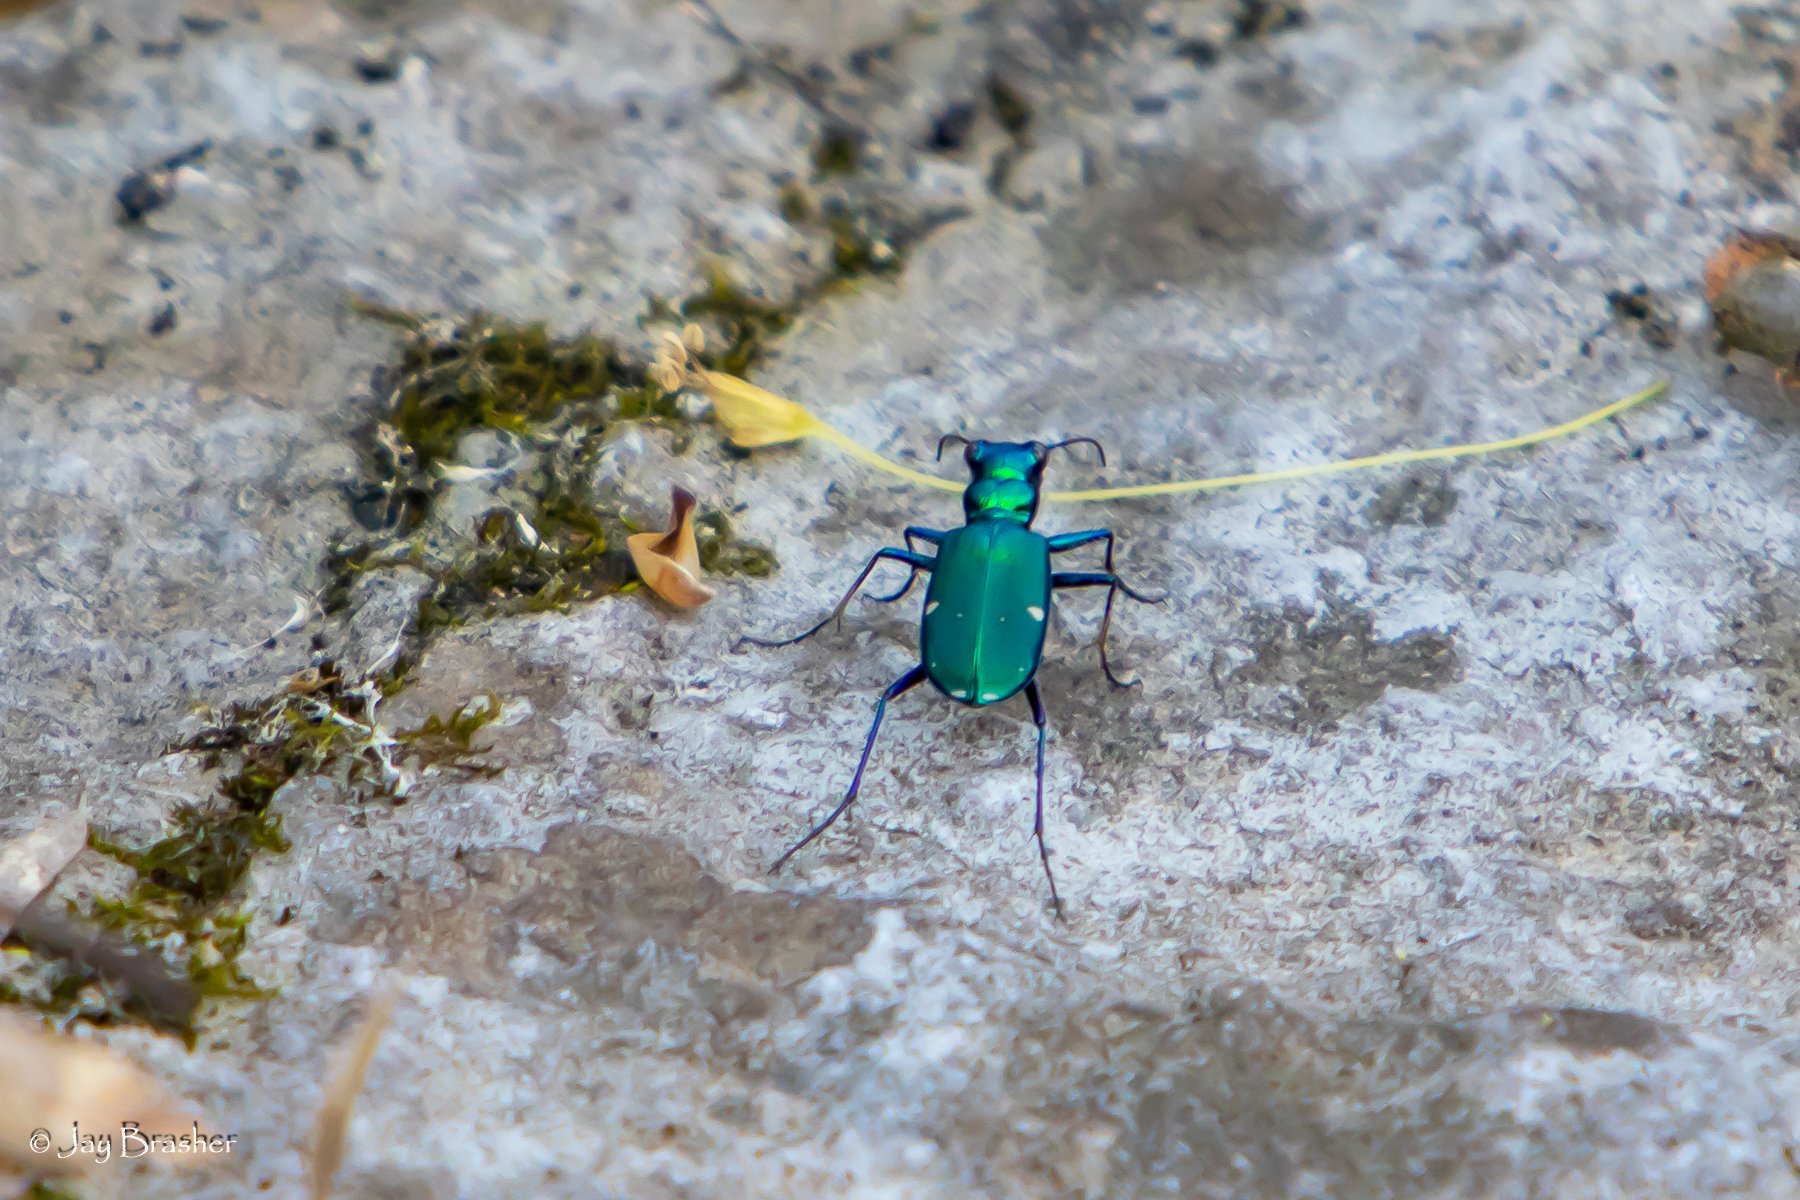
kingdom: Animalia
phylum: Arthropoda
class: Insecta
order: Coleoptera
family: Carabidae
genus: Cicindela
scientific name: Cicindela sexguttata
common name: Six-spotted tiger beetle
